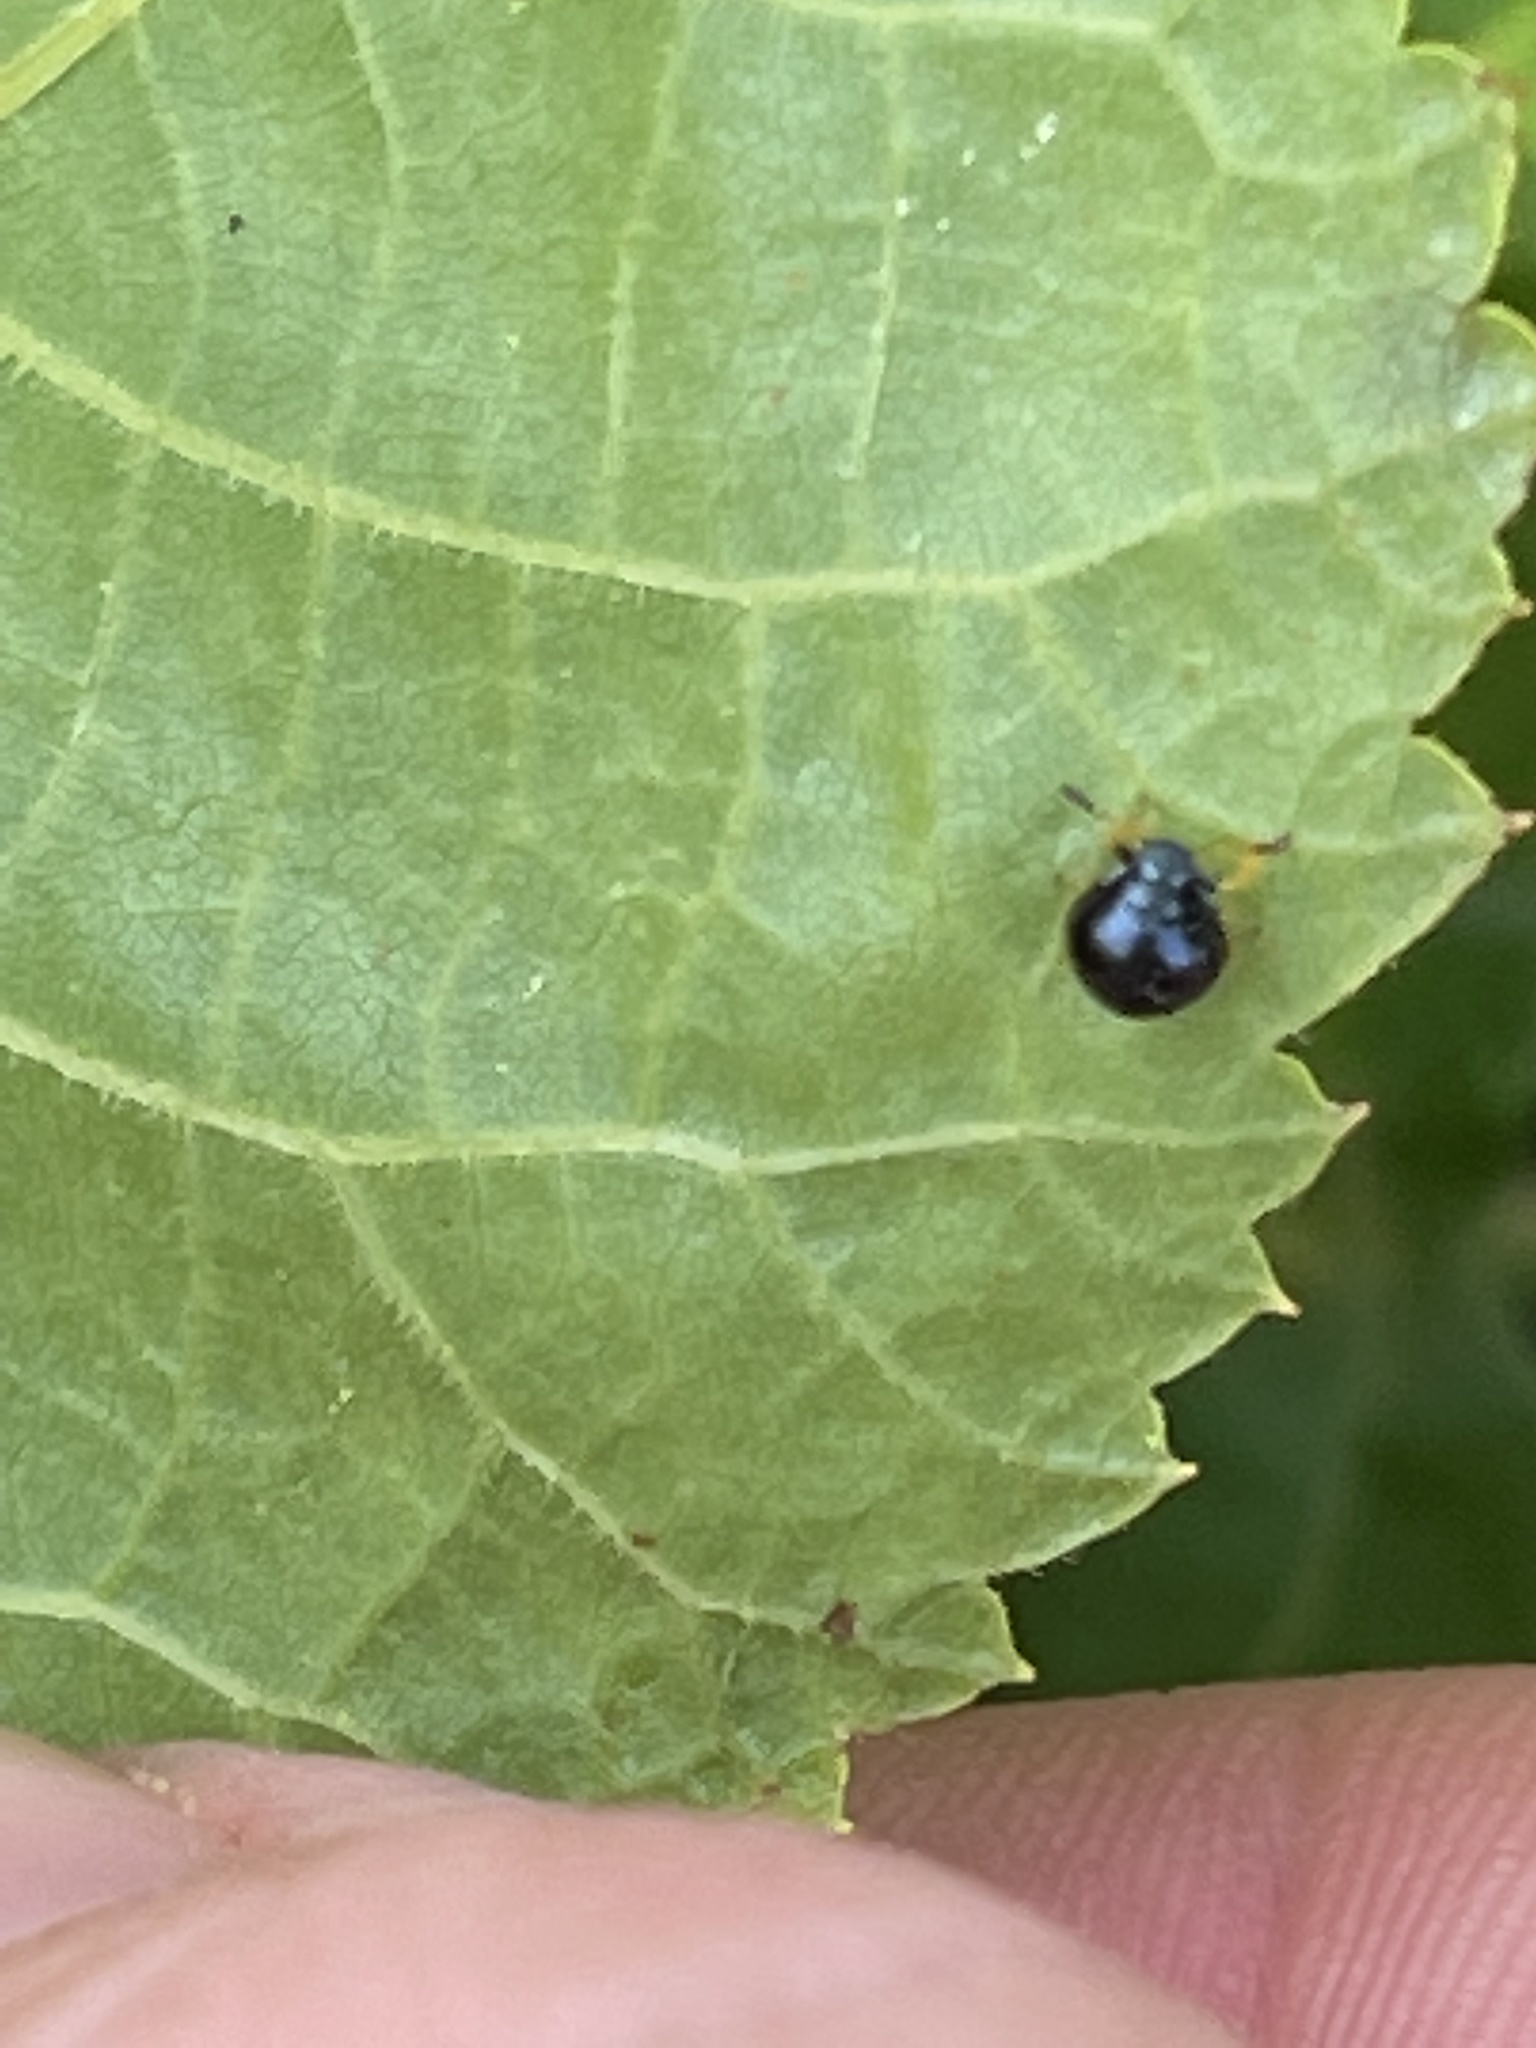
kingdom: Animalia
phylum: Arthropoda
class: Insecta
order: Hemiptera
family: Pentatomidae
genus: Stiretrus
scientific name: Stiretrus anchorago
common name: Anchor stink bug
